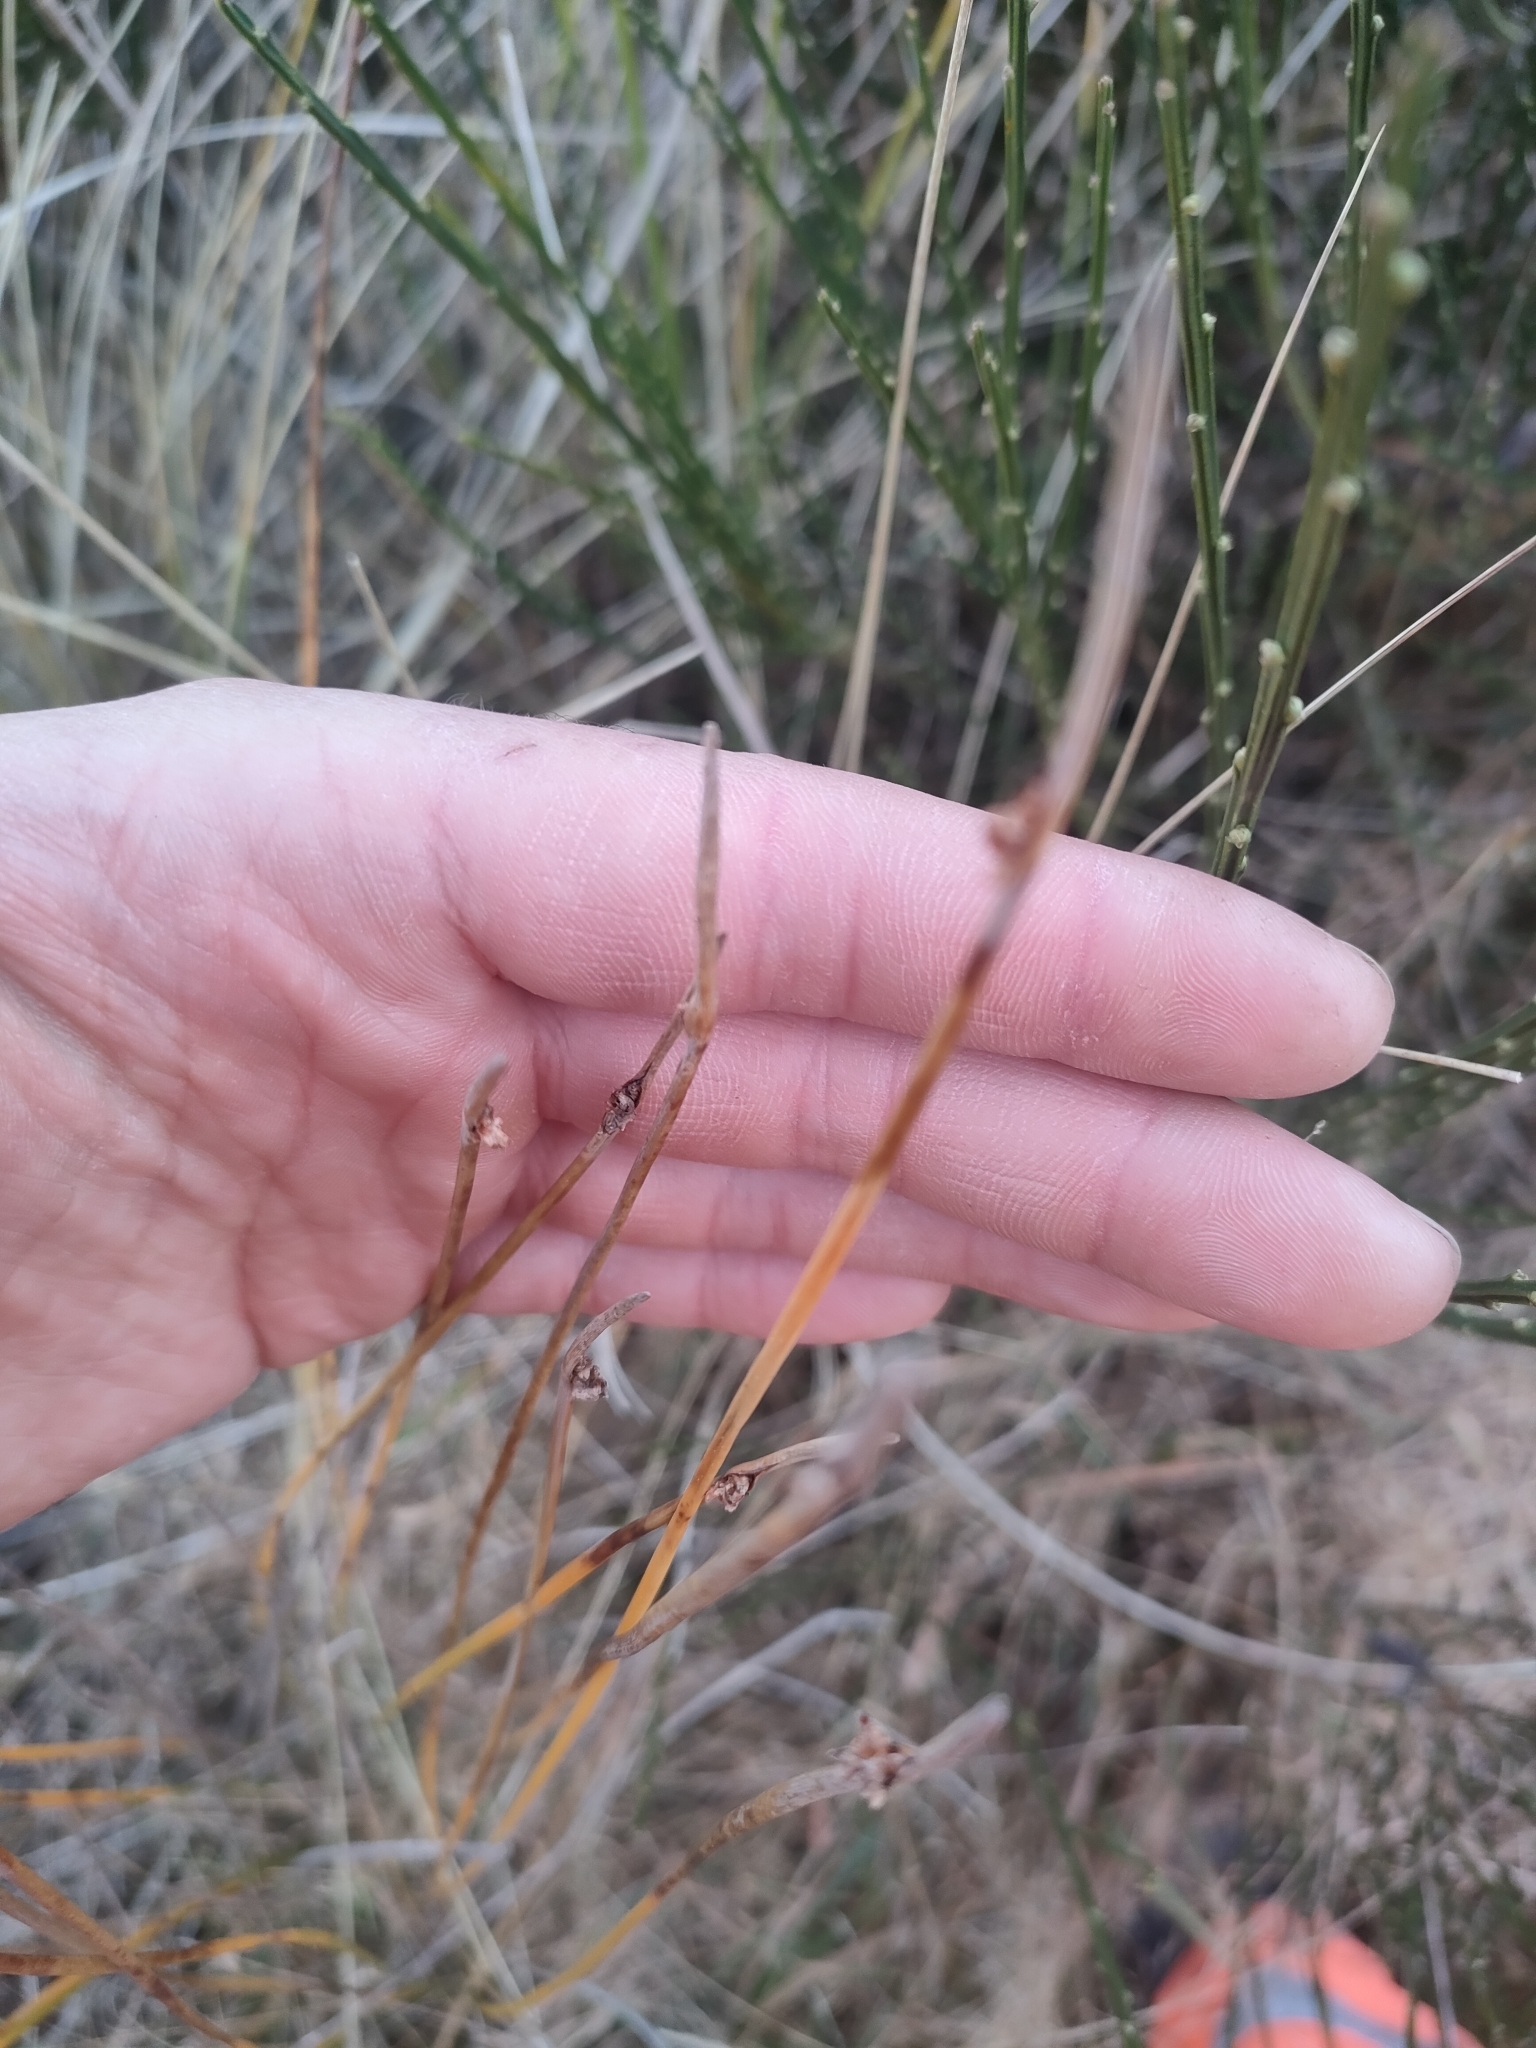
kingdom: Plantae
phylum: Tracheophyta
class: Liliopsida
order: Poales
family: Cyperaceae
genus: Ficinia
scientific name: Ficinia nodosa
